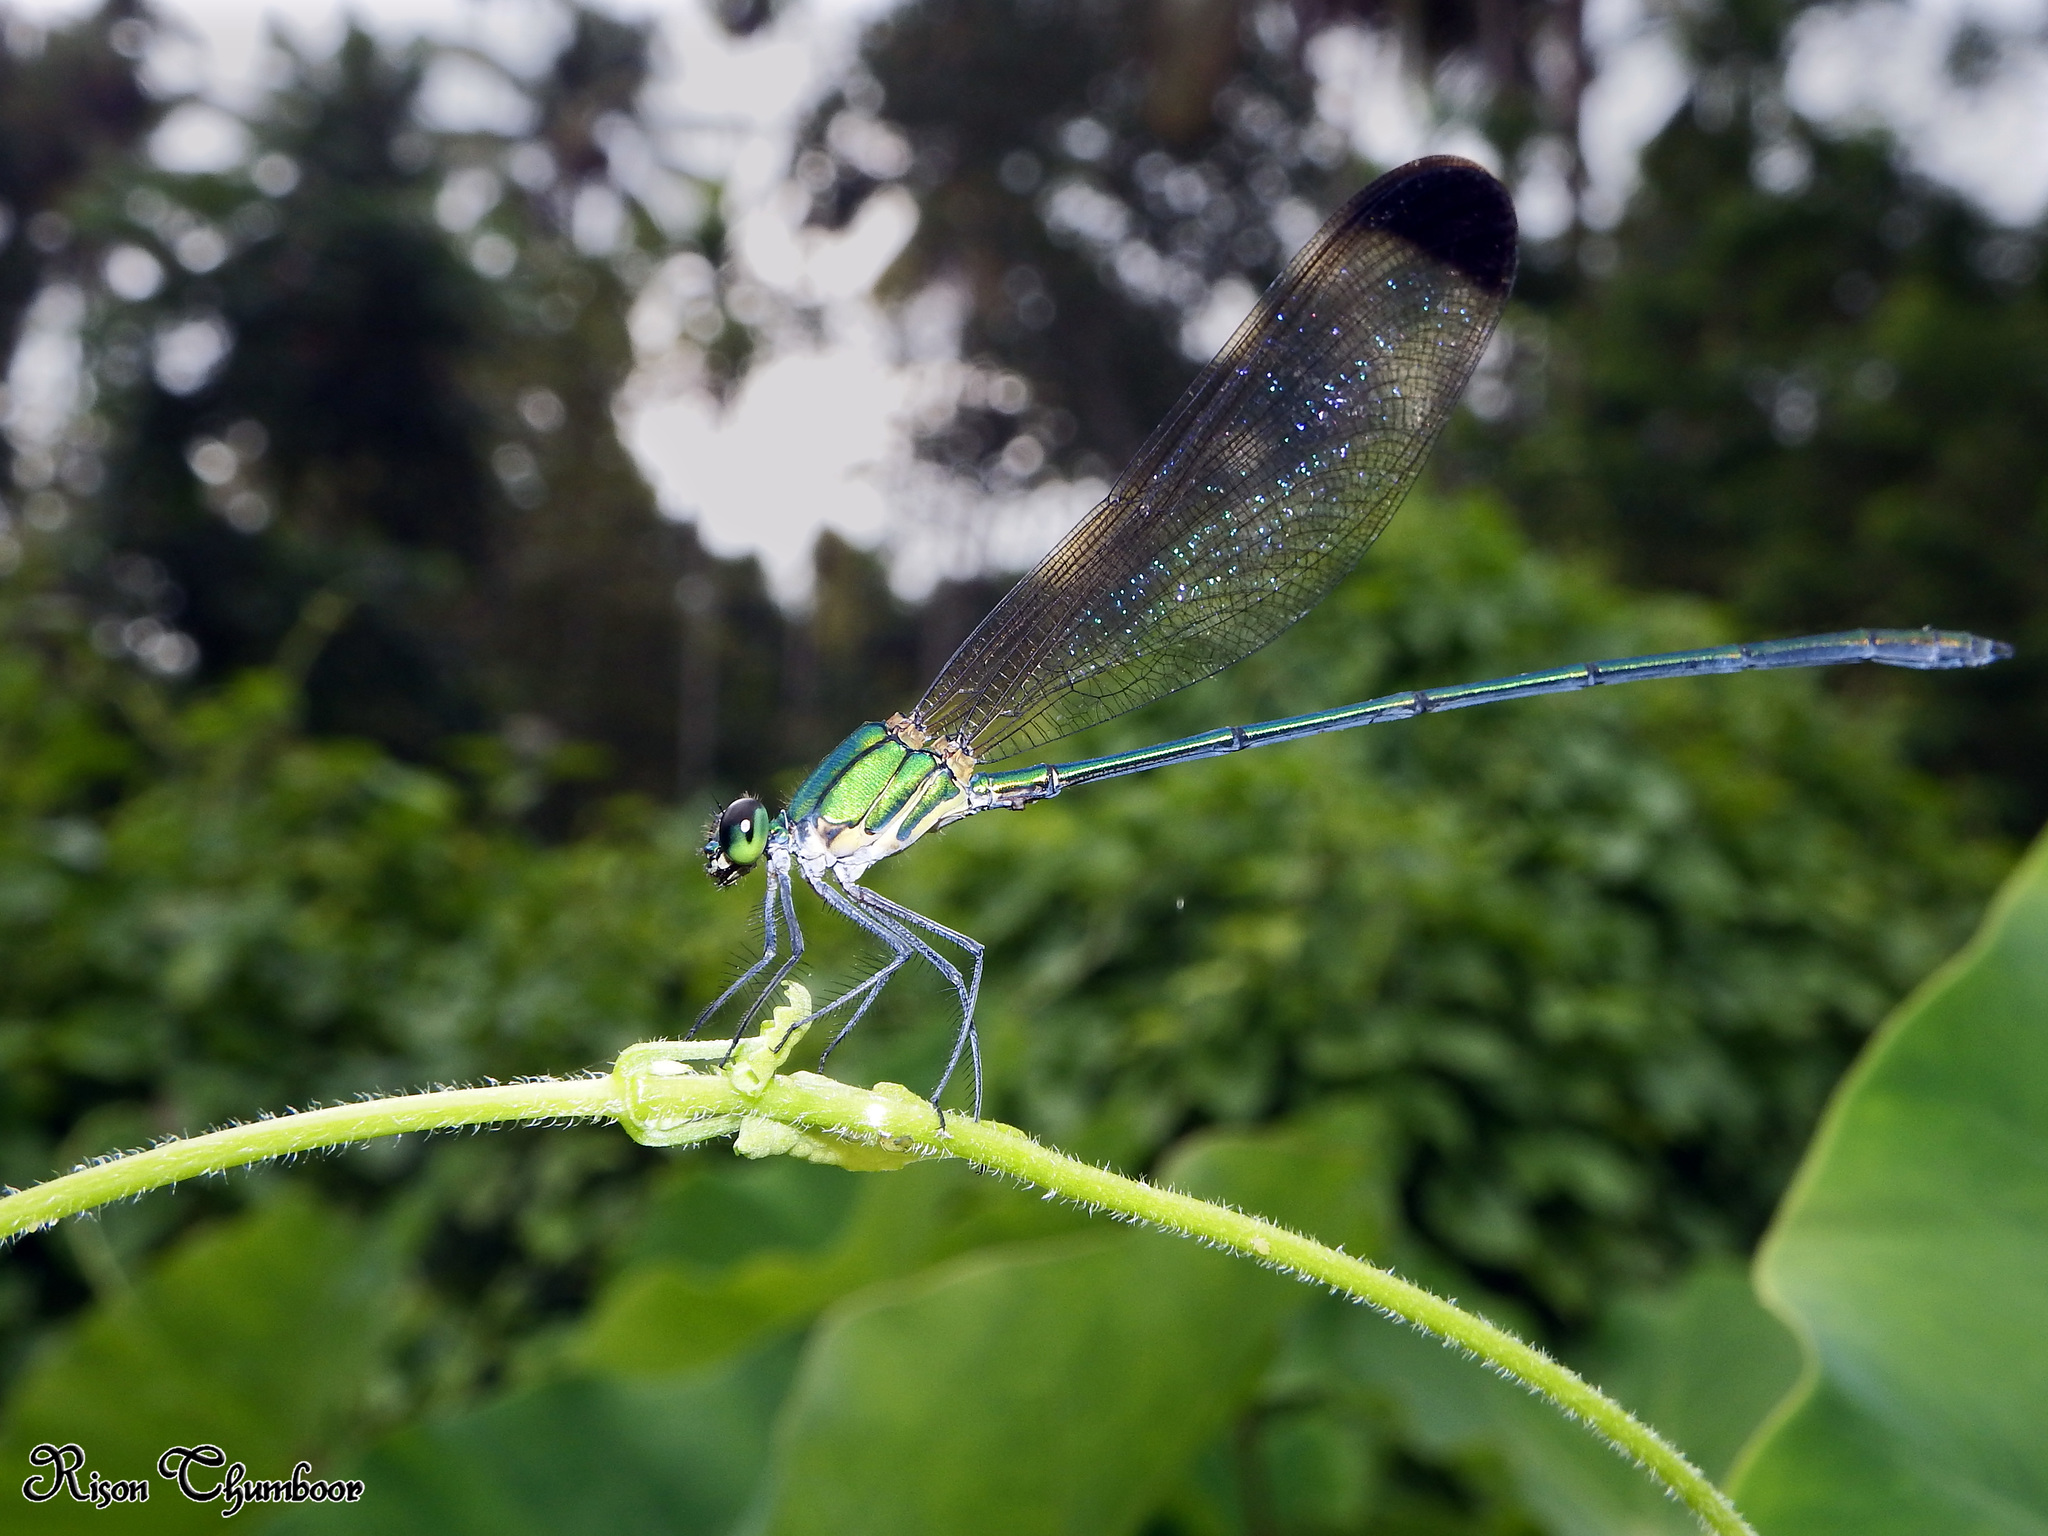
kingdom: Animalia
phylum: Arthropoda
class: Insecta
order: Odonata
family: Calopterygidae
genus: Vestalis
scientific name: Vestalis apicalis
